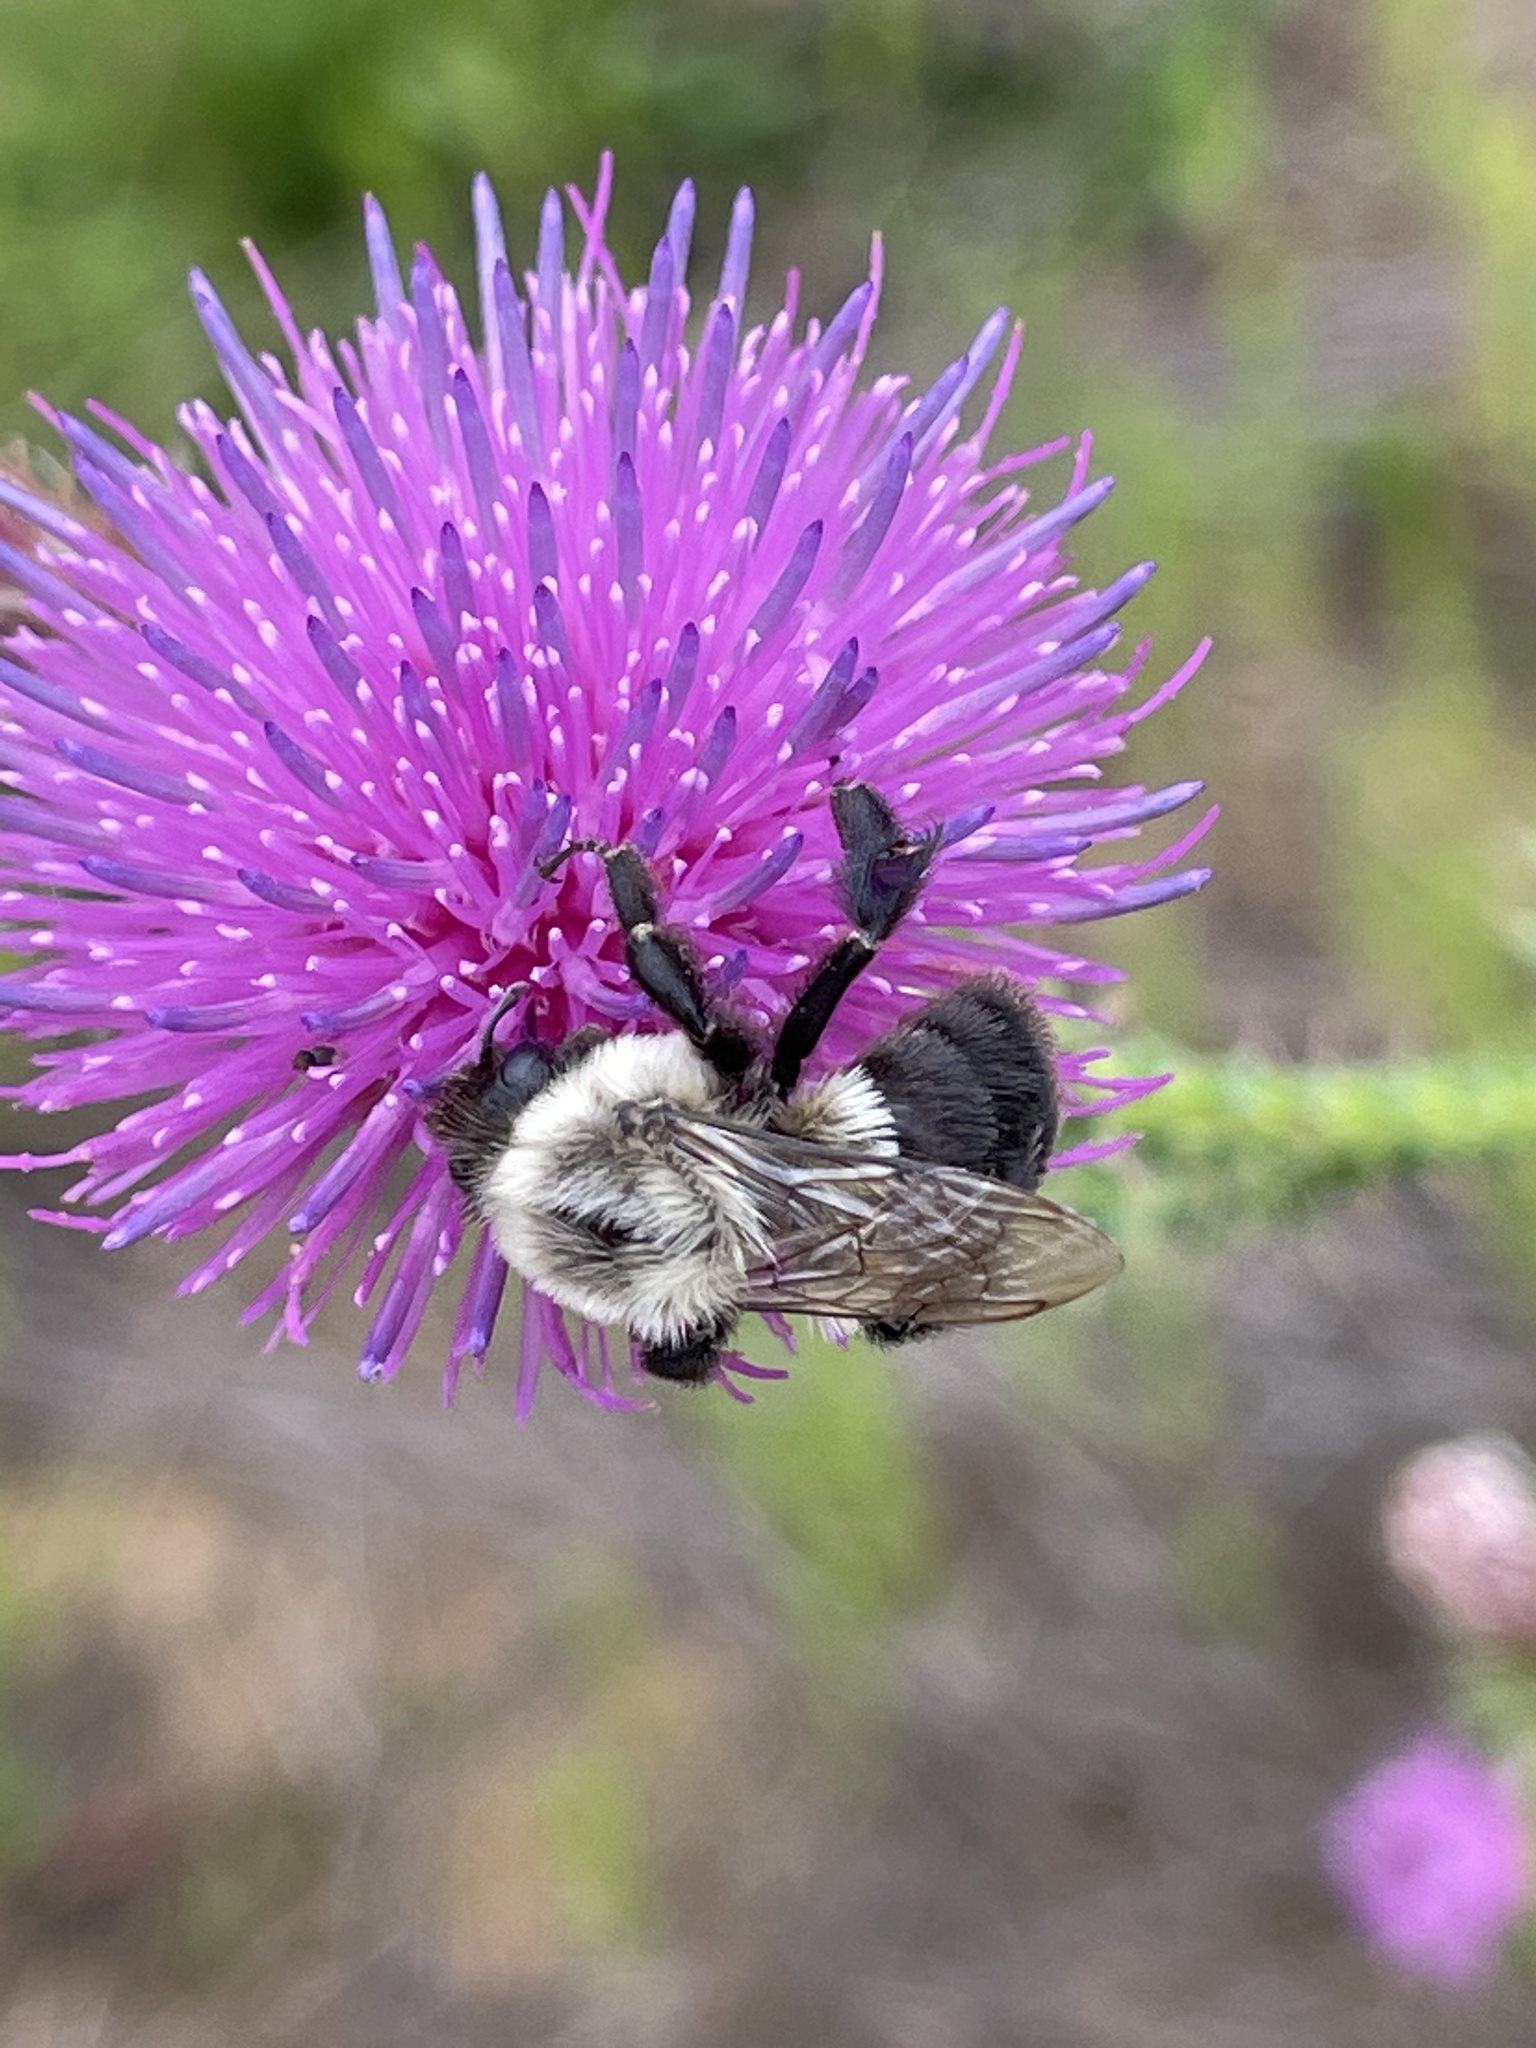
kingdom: Animalia
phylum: Arthropoda
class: Insecta
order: Hymenoptera
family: Apidae
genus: Bombus
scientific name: Bombus impatiens
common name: Common eastern bumble bee
